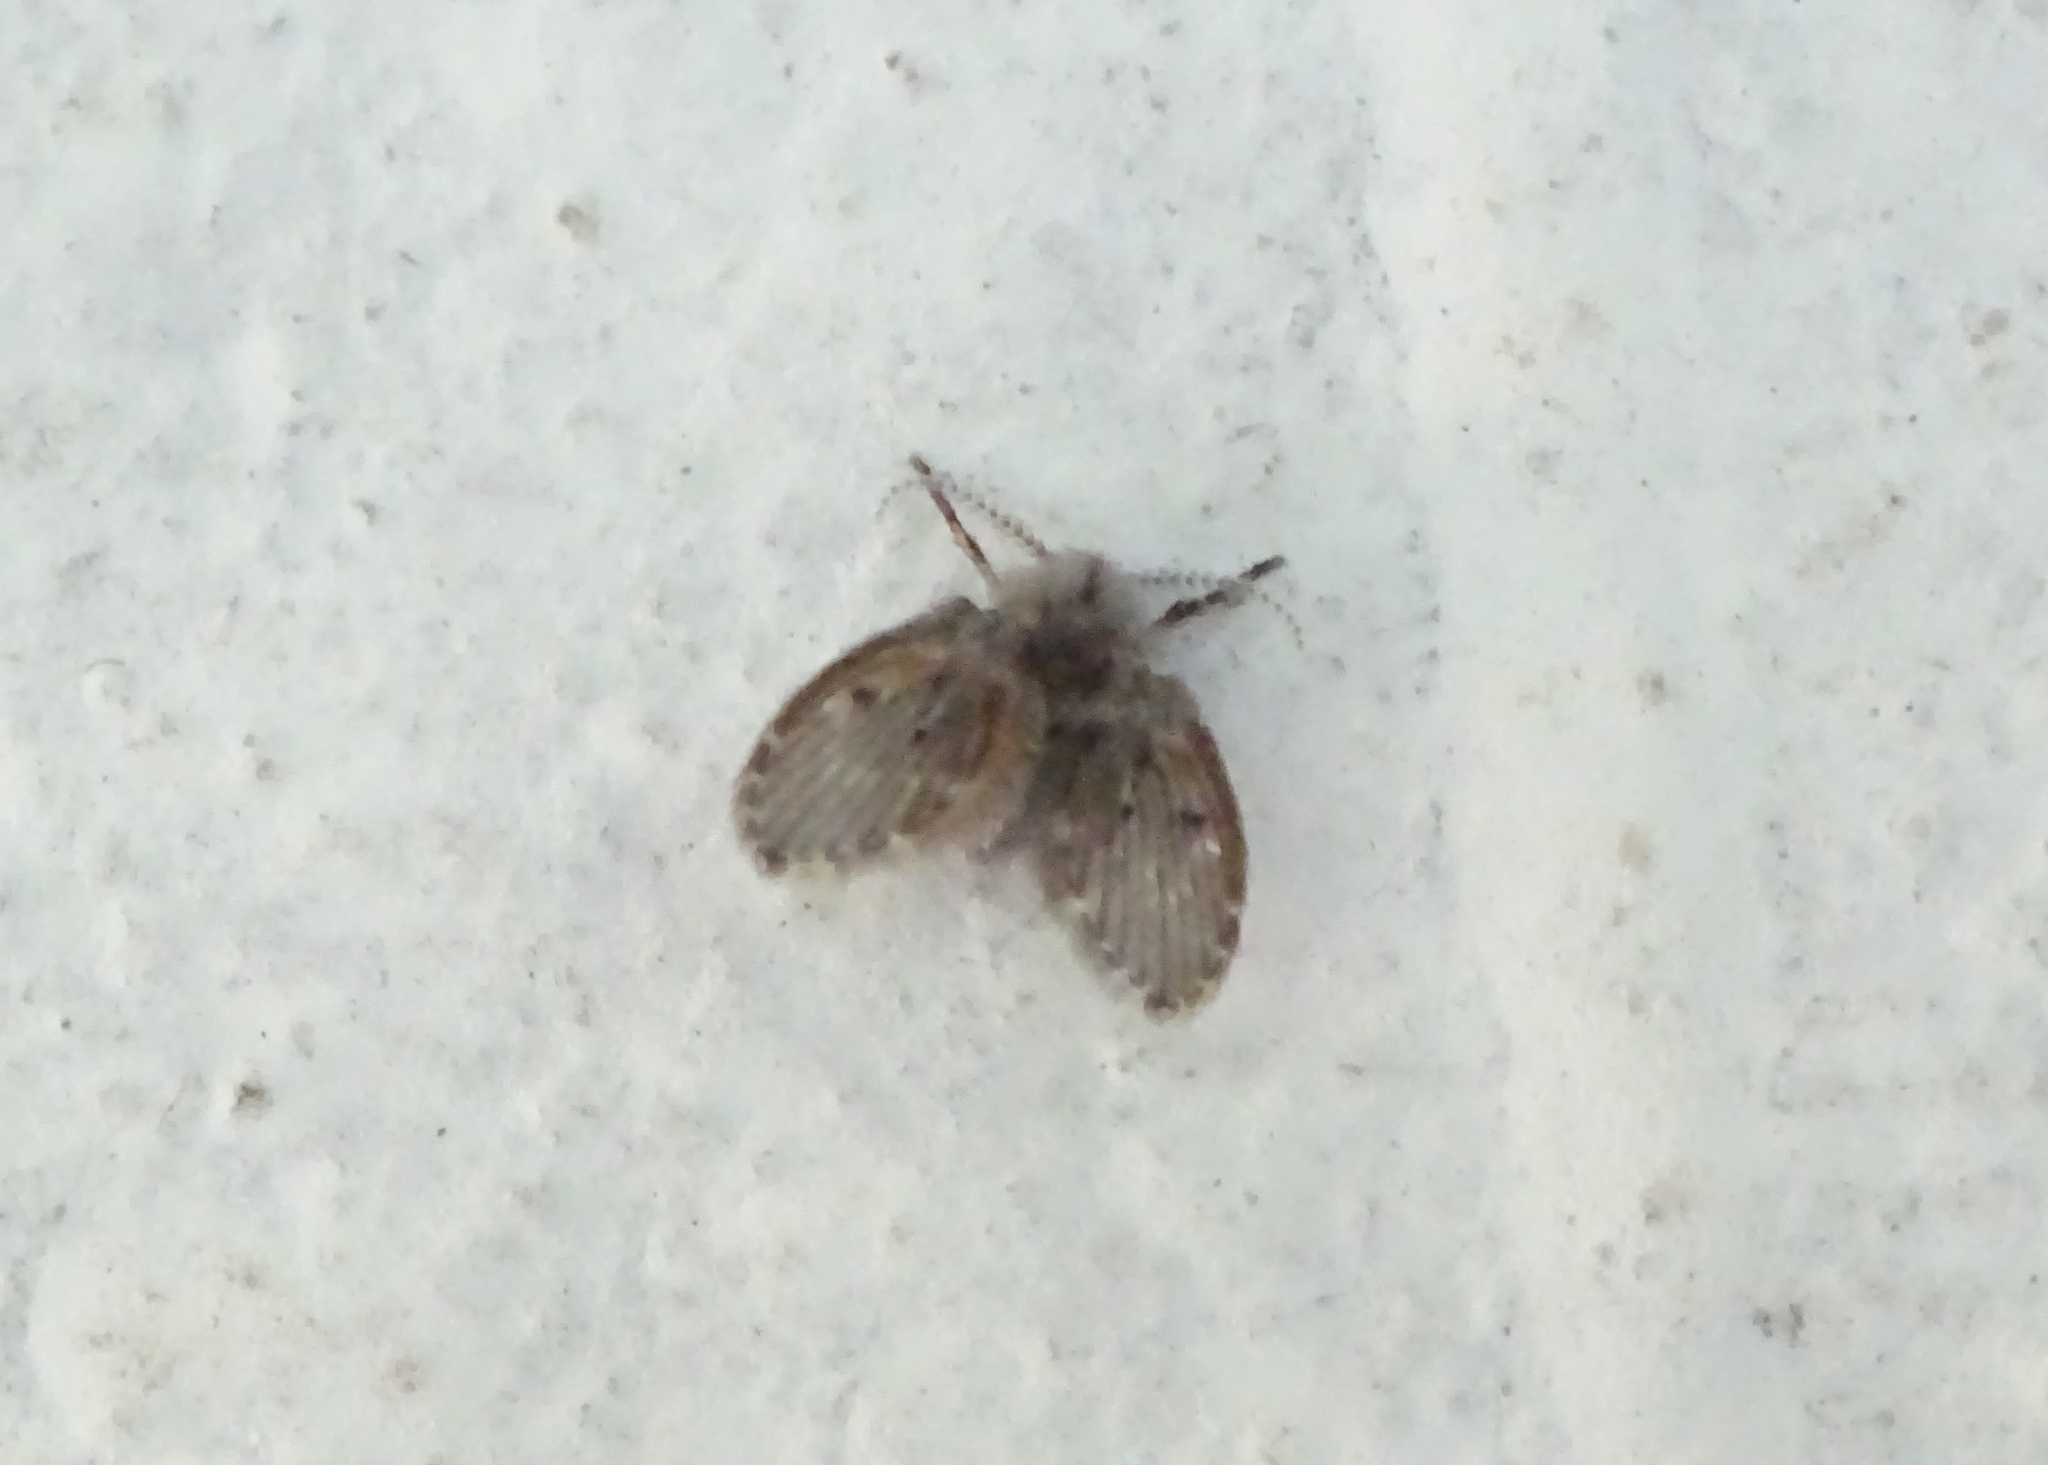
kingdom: Animalia
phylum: Arthropoda
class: Insecta
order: Diptera
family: Psychodidae
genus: Clogmia
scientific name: Clogmia albipunctatus
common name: White-spotted moth fly
